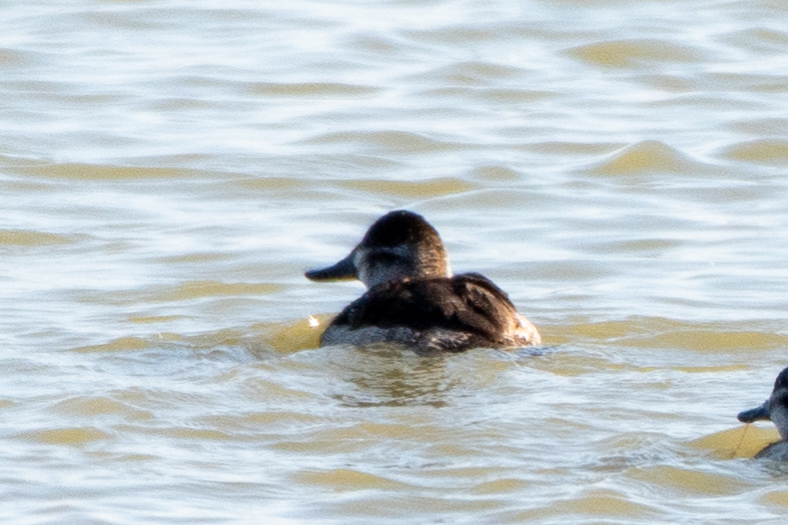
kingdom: Animalia
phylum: Chordata
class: Aves
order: Anseriformes
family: Anatidae
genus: Oxyura
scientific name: Oxyura jamaicensis
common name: Ruddy duck
